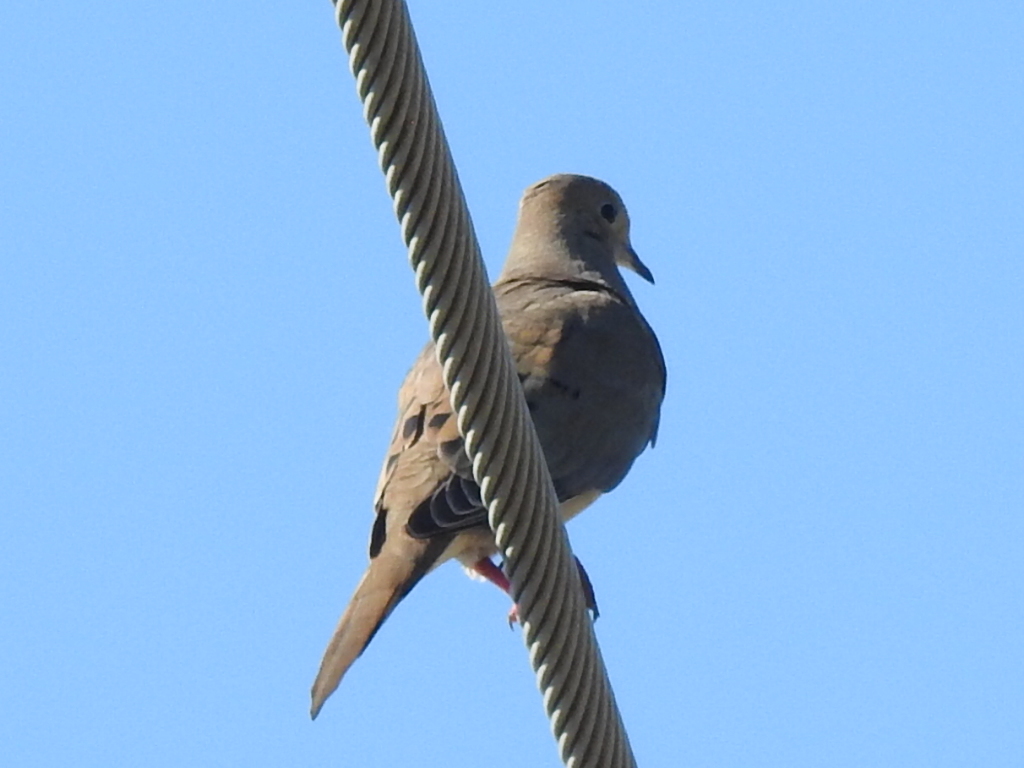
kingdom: Animalia
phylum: Chordata
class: Aves
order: Columbiformes
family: Columbidae
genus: Zenaida
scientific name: Zenaida macroura
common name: Mourning dove
